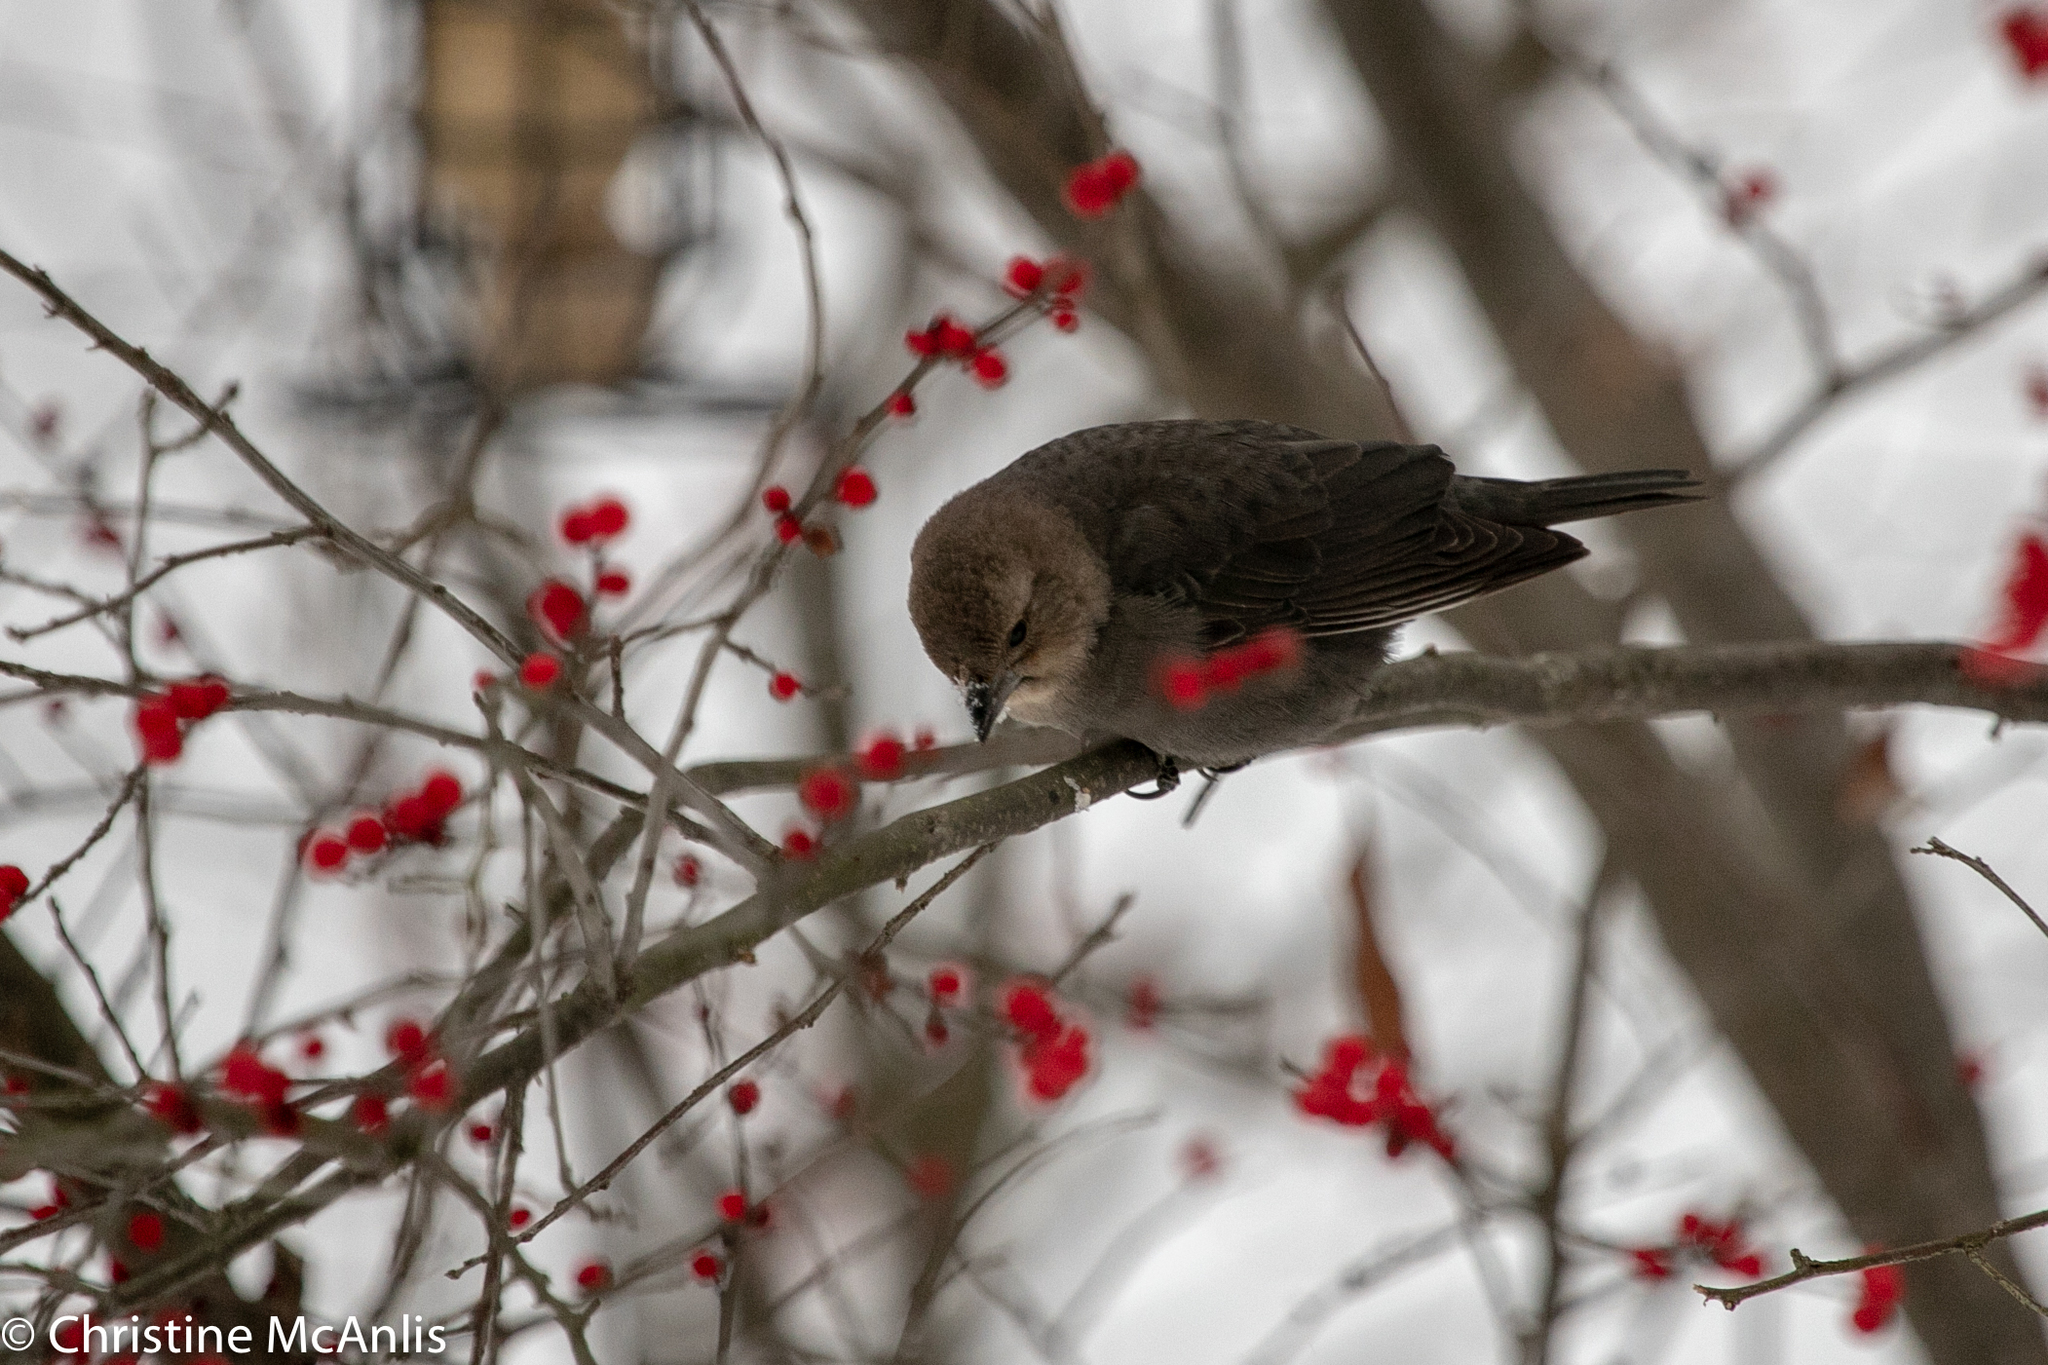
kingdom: Animalia
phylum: Chordata
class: Aves
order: Passeriformes
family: Icteridae
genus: Molothrus
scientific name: Molothrus ater
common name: Brown-headed cowbird
